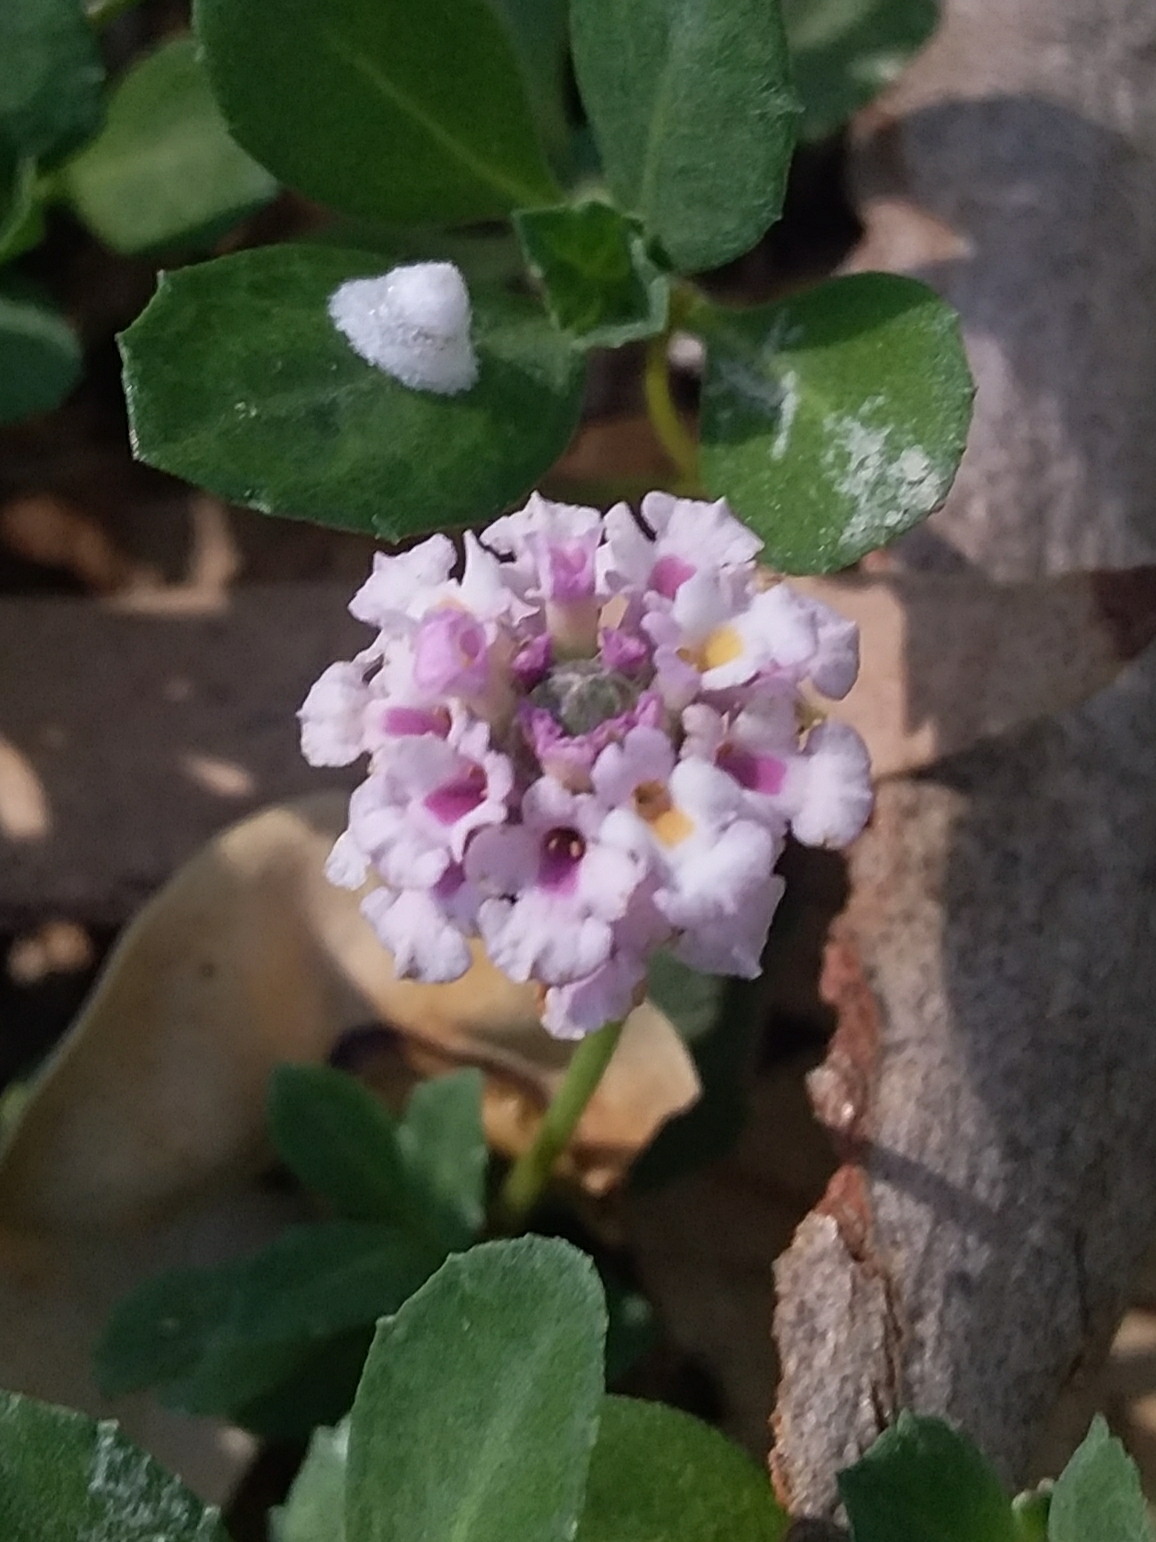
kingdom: Plantae
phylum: Tracheophyta
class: Magnoliopsida
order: Lamiales
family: Verbenaceae
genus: Phyla
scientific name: Phyla nodiflora
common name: Frogfruit
